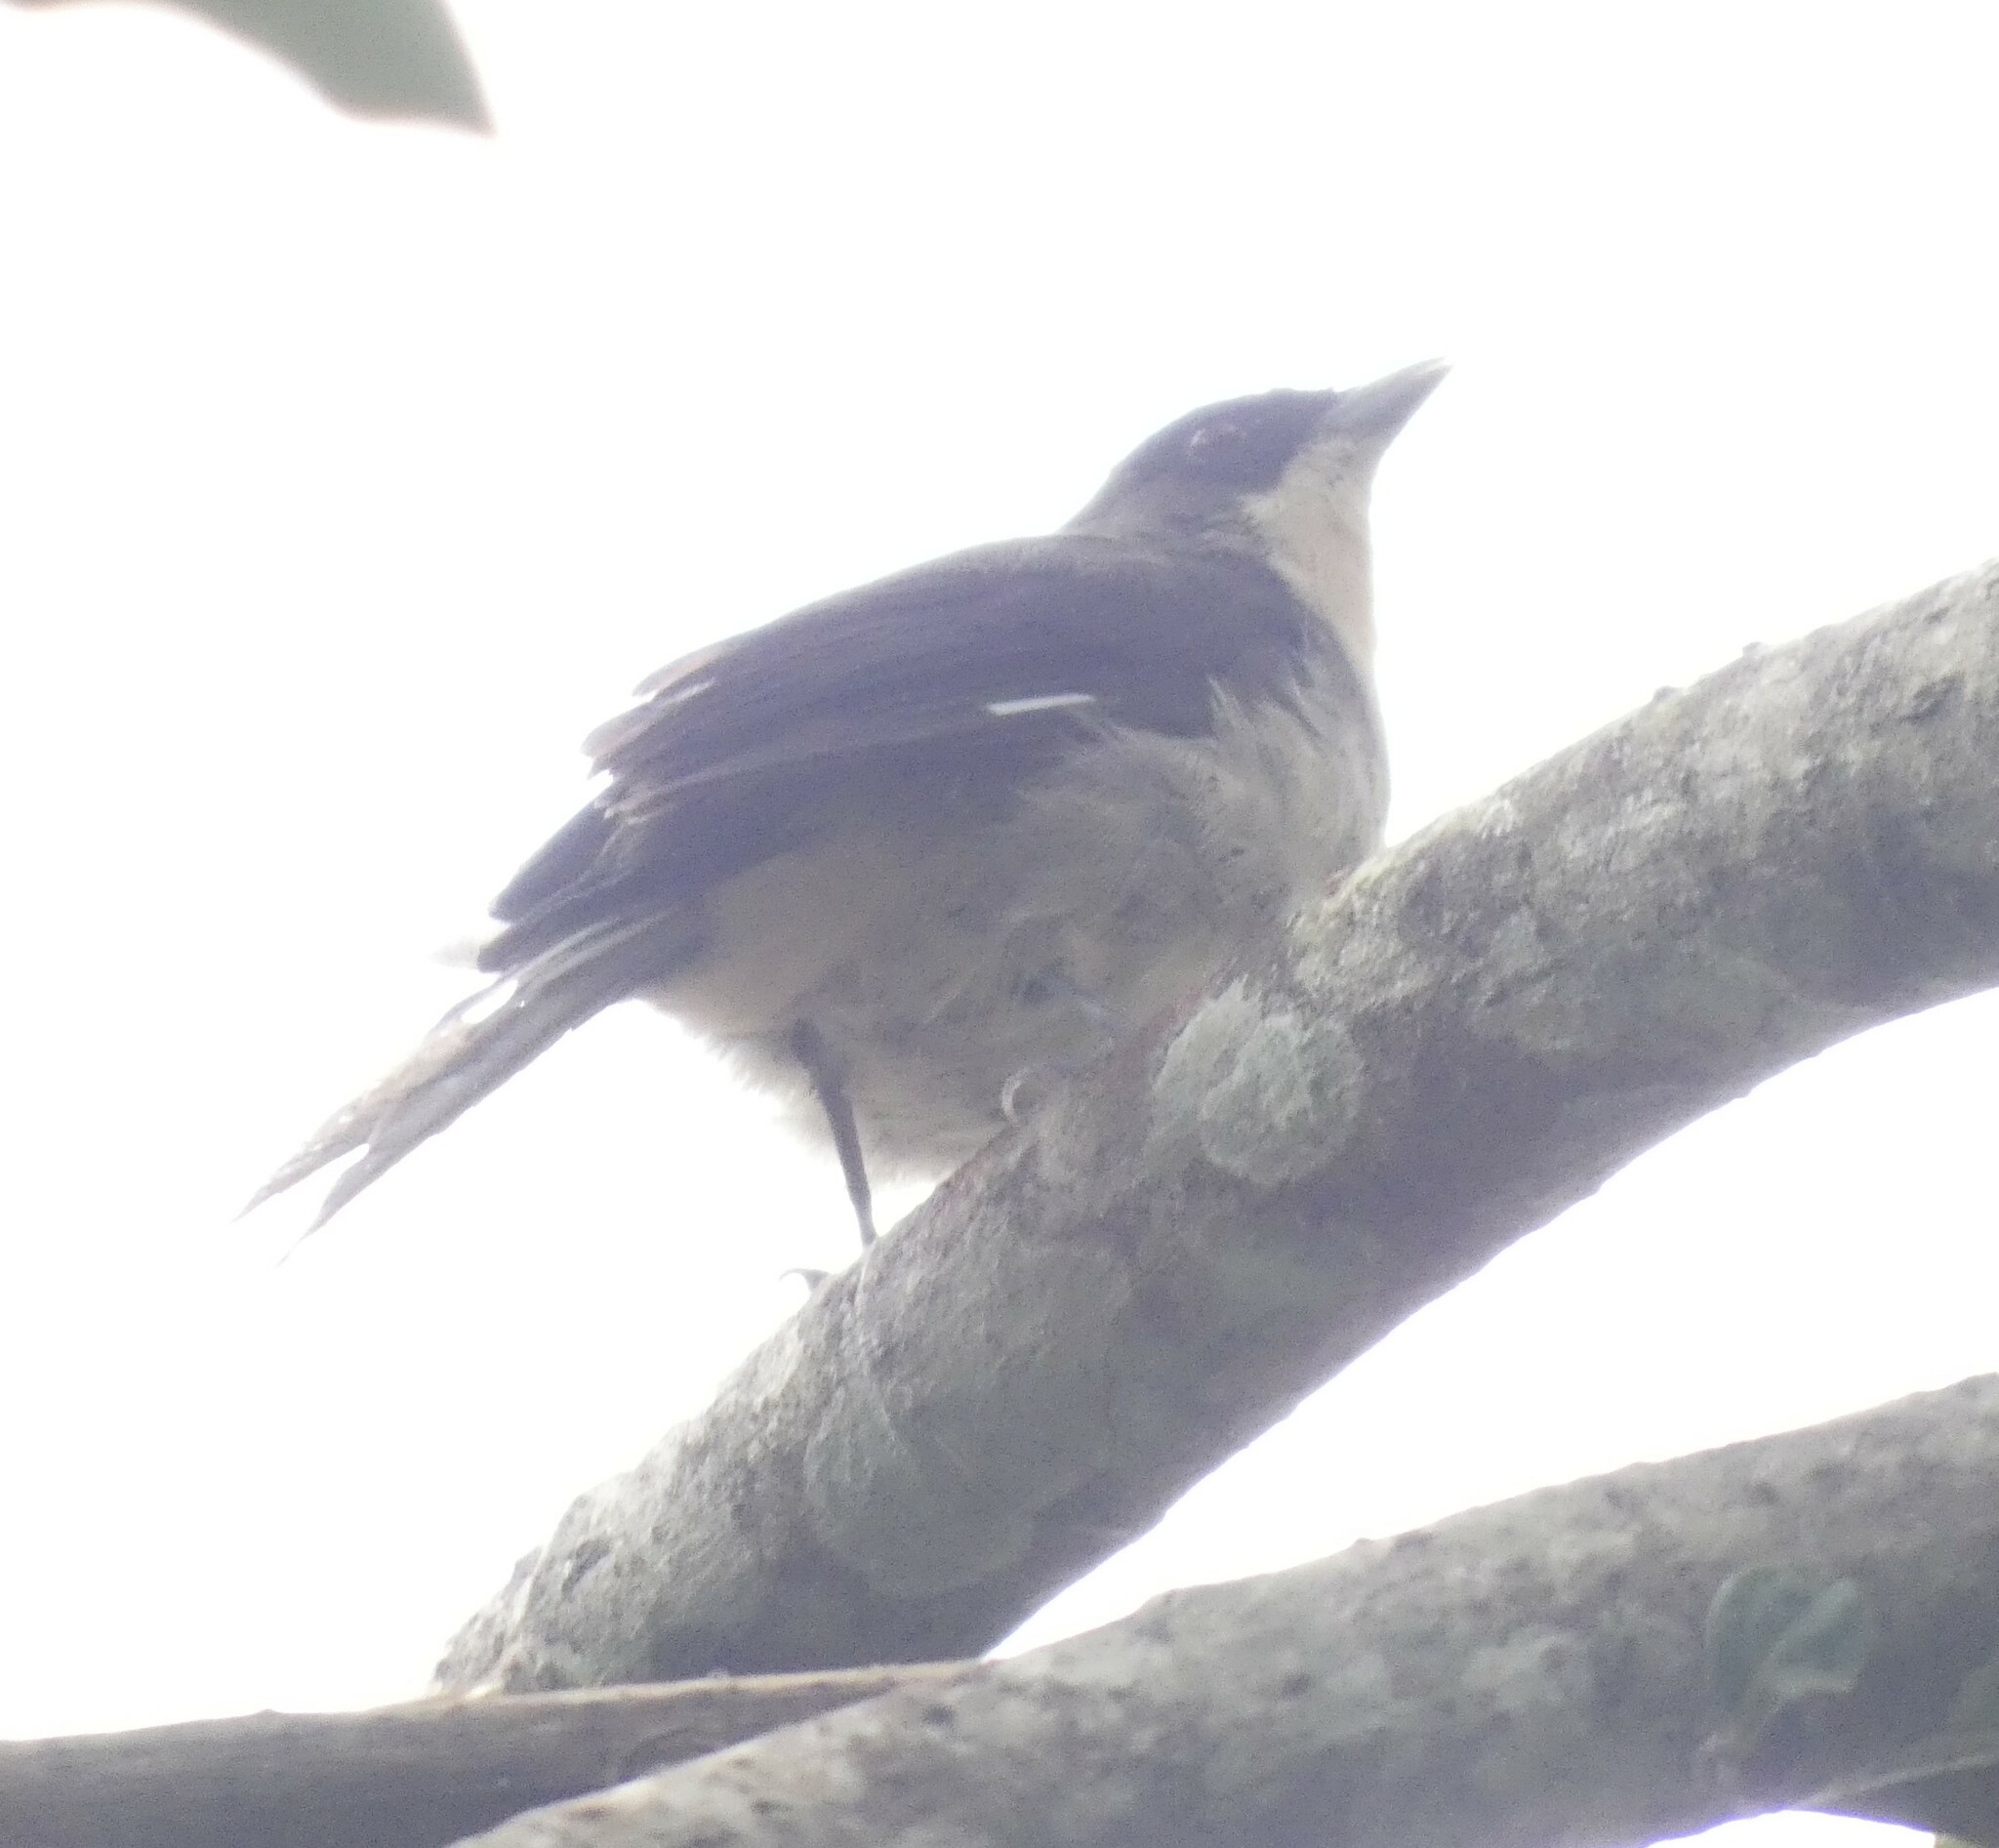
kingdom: Animalia
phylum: Chordata
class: Aves
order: Passeriformes
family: Thraupidae
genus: Trichothraupis
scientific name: Trichothraupis melanops
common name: Black-goggled tanager
